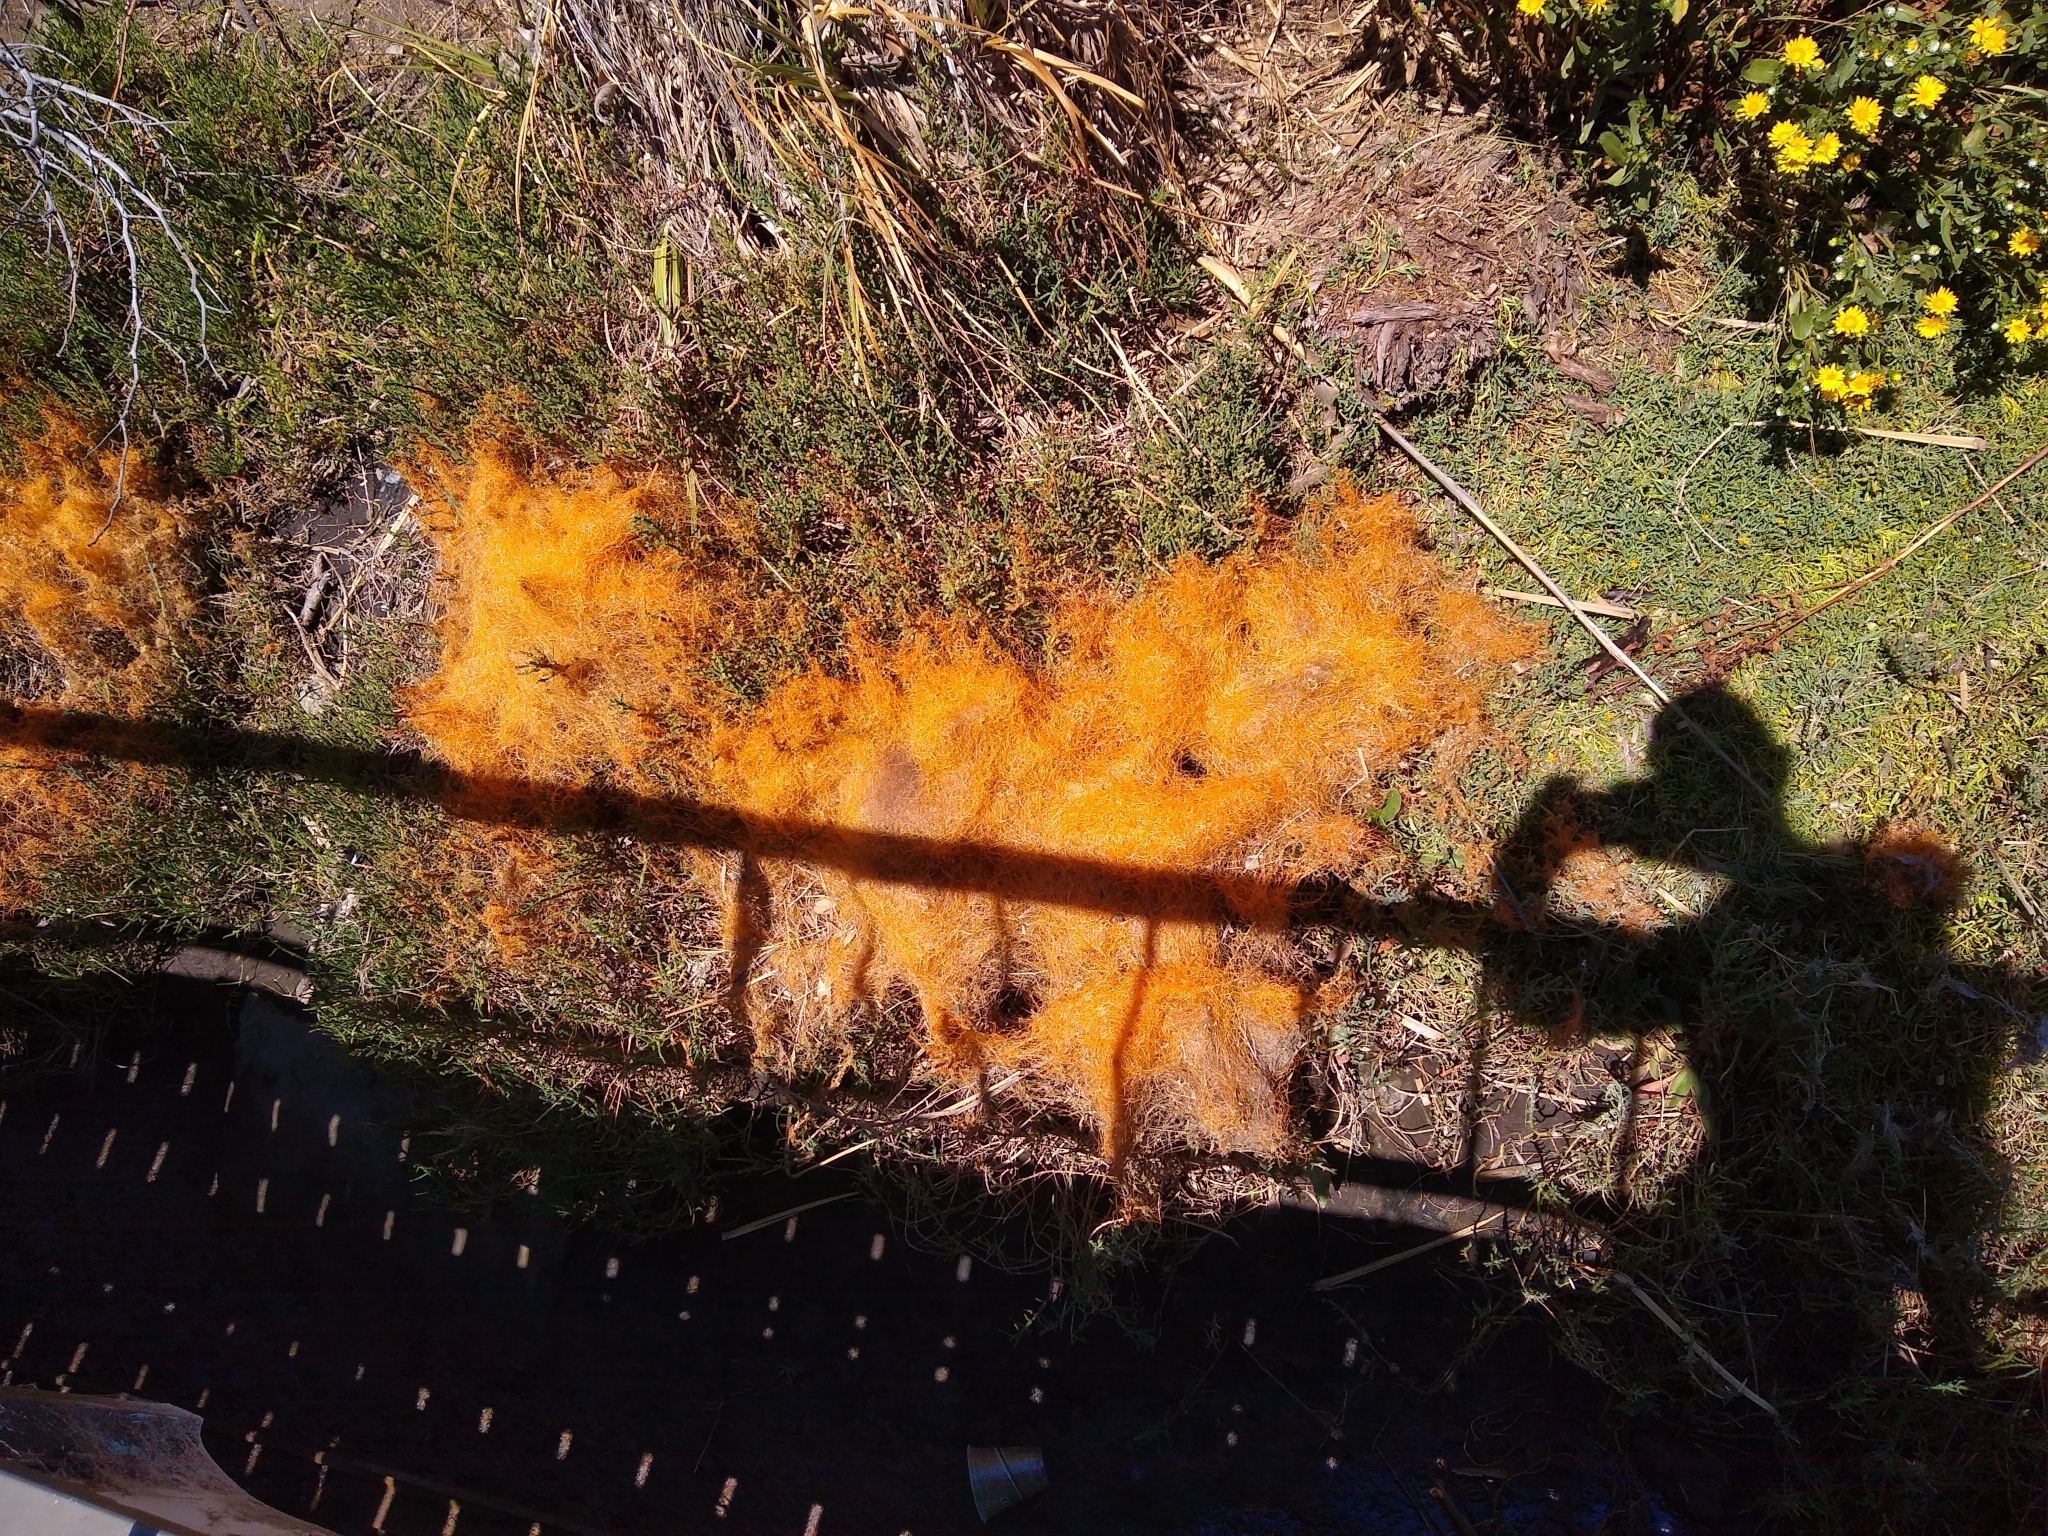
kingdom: Plantae
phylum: Tracheophyta
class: Magnoliopsida
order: Solanales
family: Convolvulaceae
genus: Cuscuta
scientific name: Cuscuta pacifica
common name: Large saltmarsh dodder
